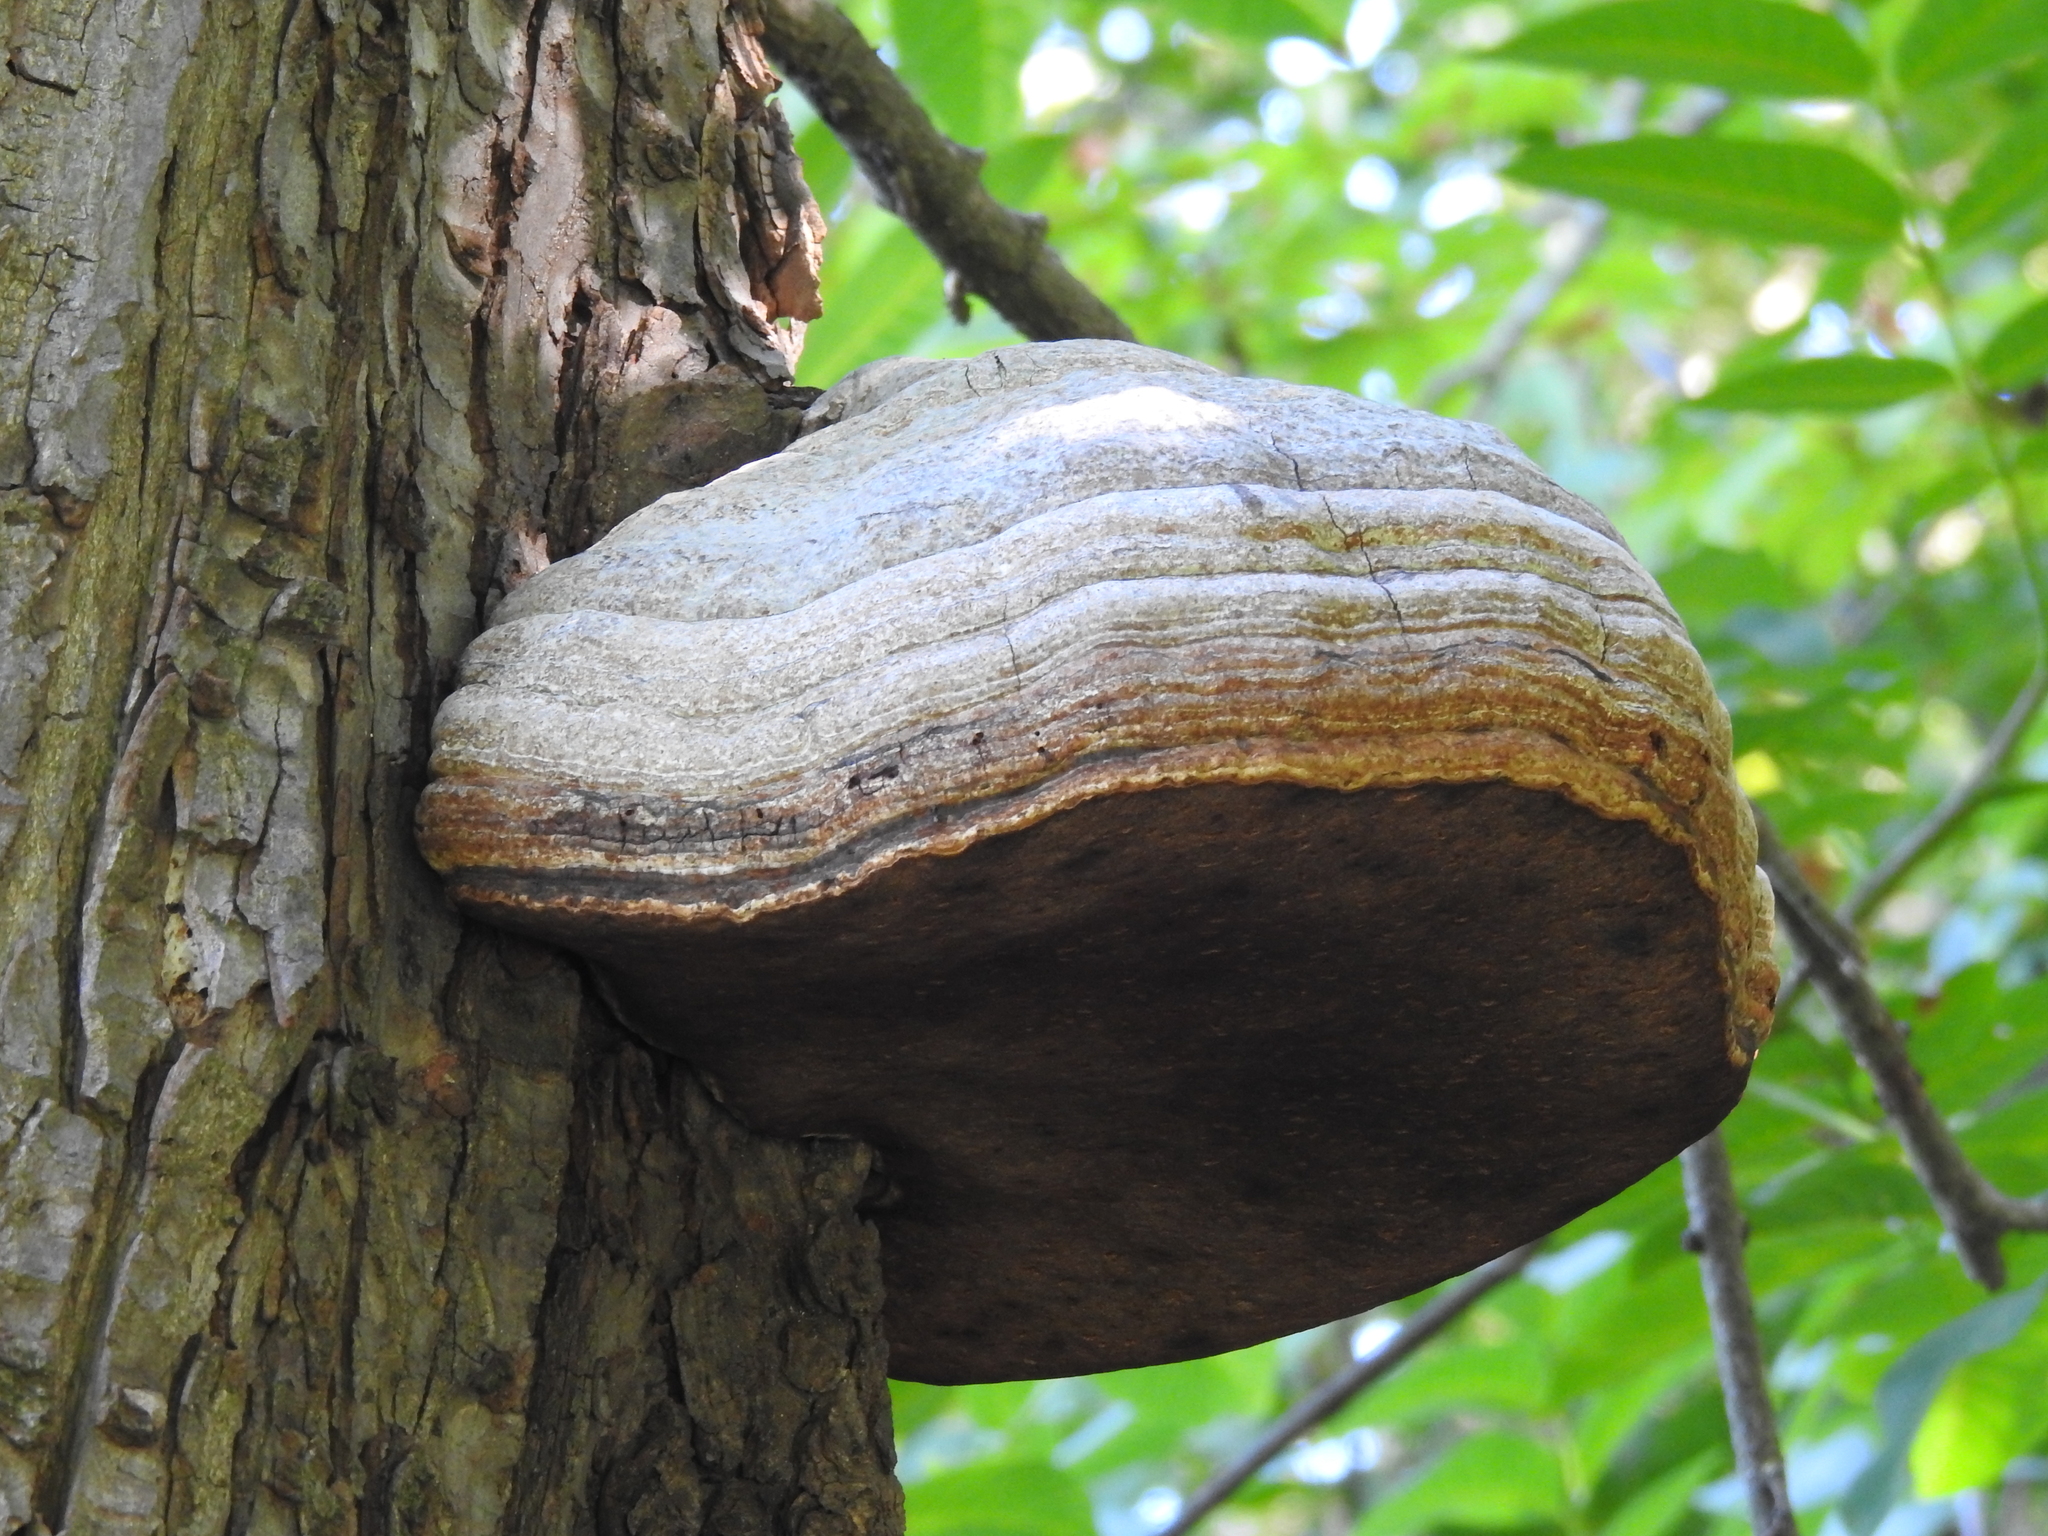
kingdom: Fungi
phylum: Basidiomycota
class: Agaricomycetes
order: Polyporales
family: Polyporaceae
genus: Fomes
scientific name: Fomes fomentarius
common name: Hoof fungus
